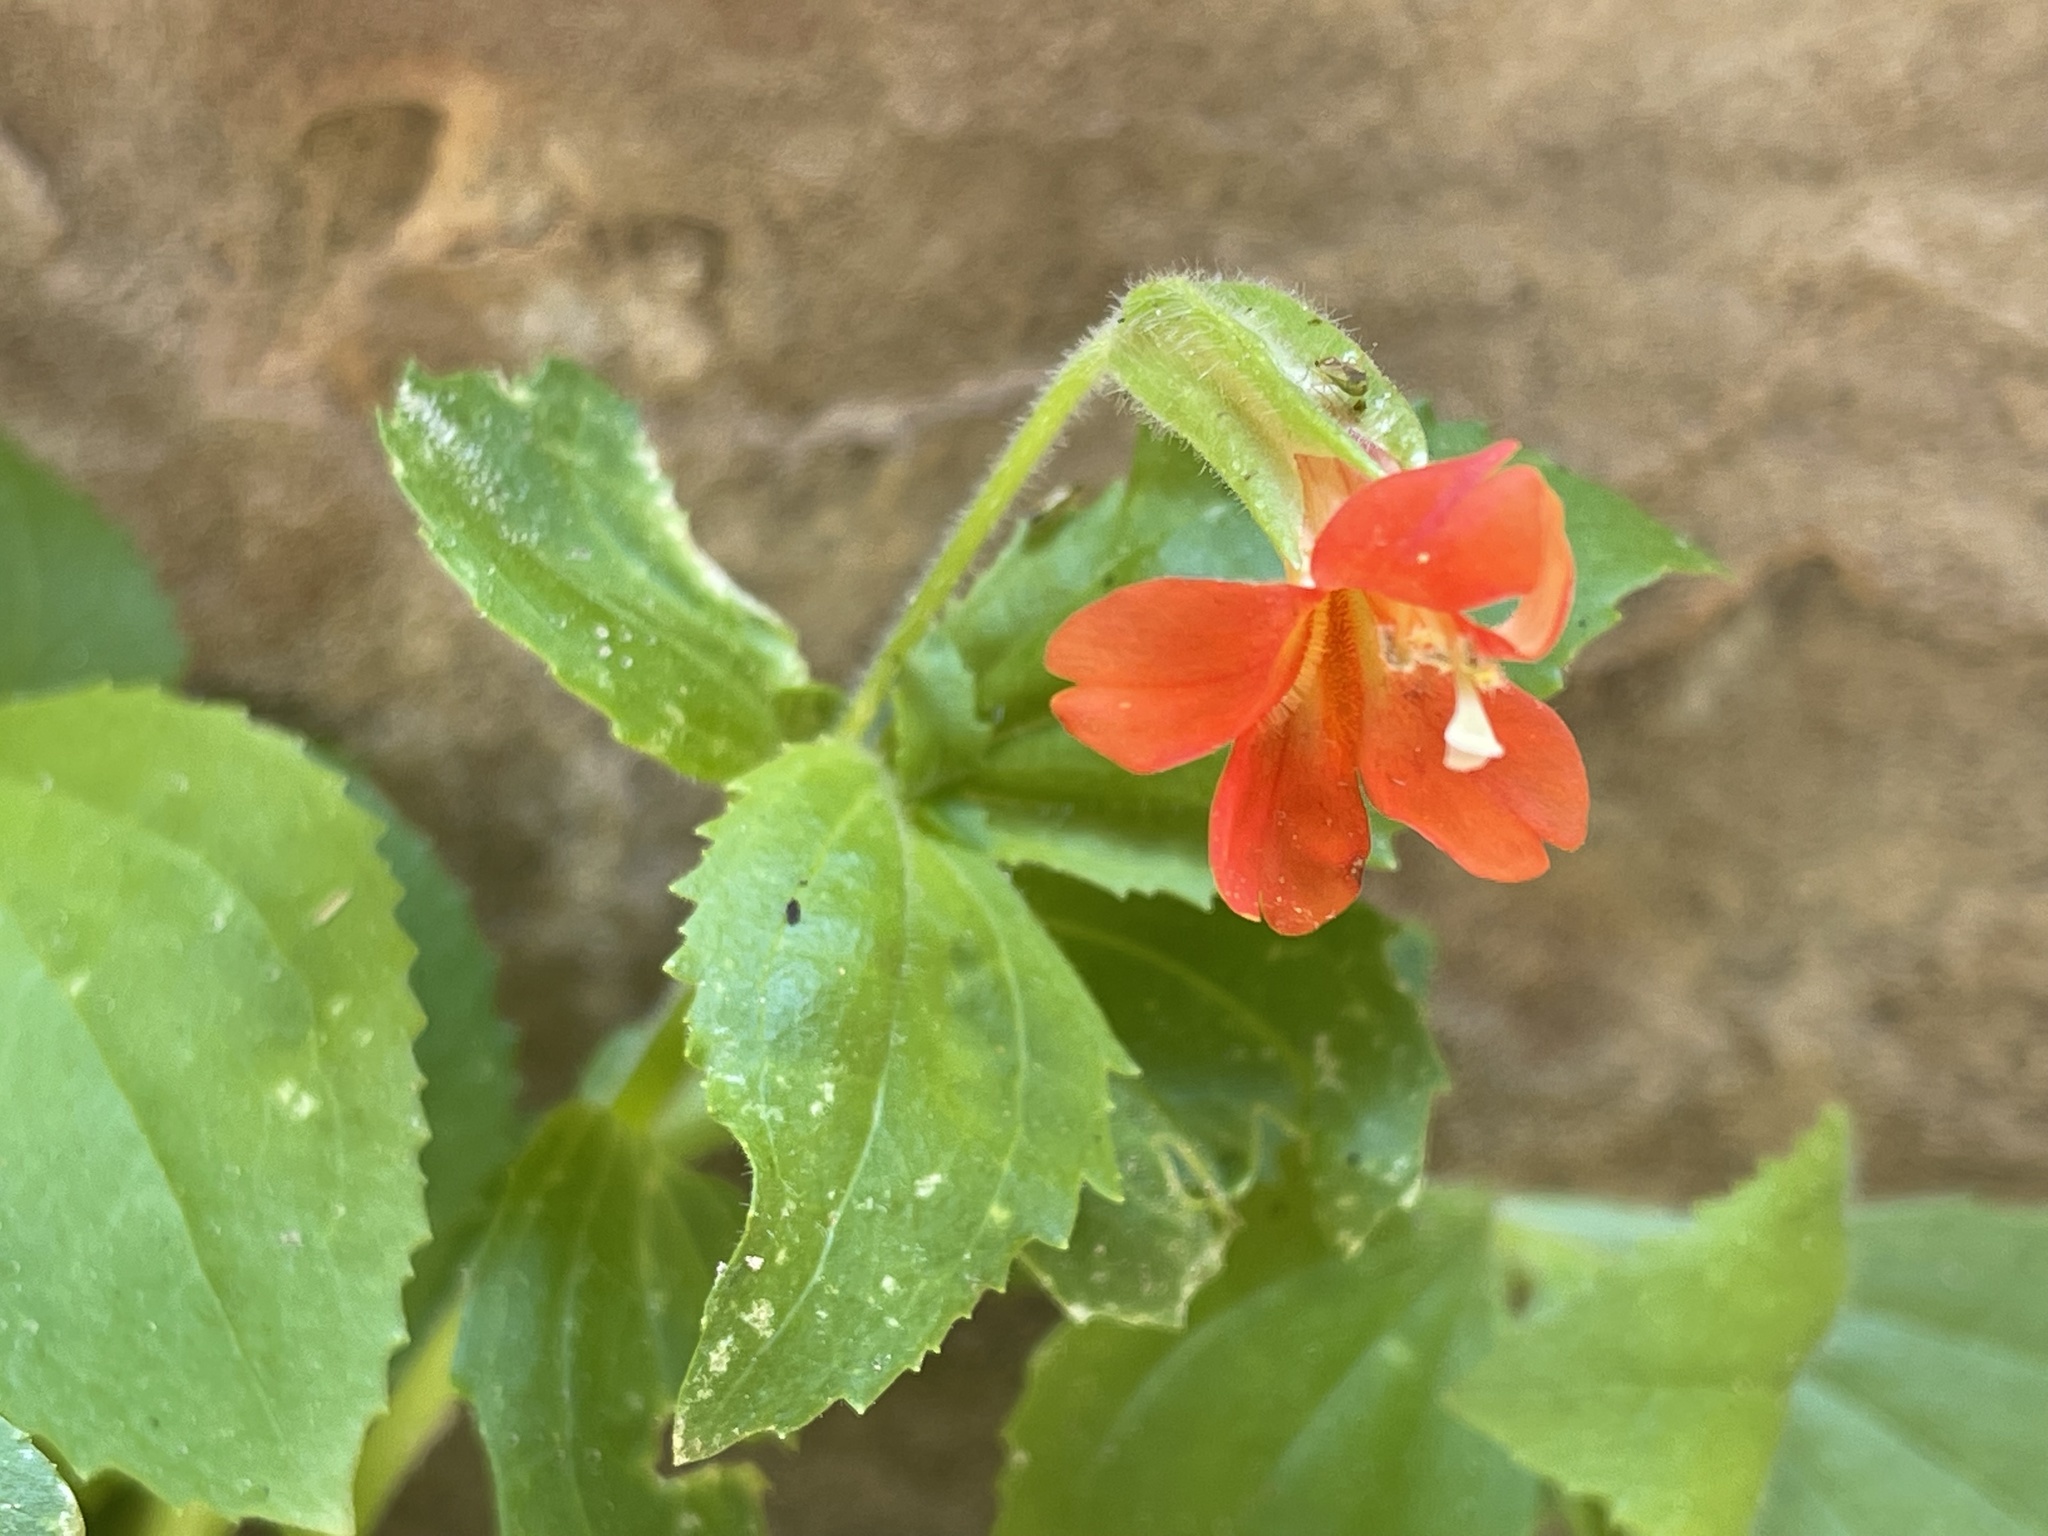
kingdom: Plantae
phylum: Tracheophyta
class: Magnoliopsida
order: Lamiales
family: Phrymaceae
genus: Erythranthe
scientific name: Erythranthe verbenacea
